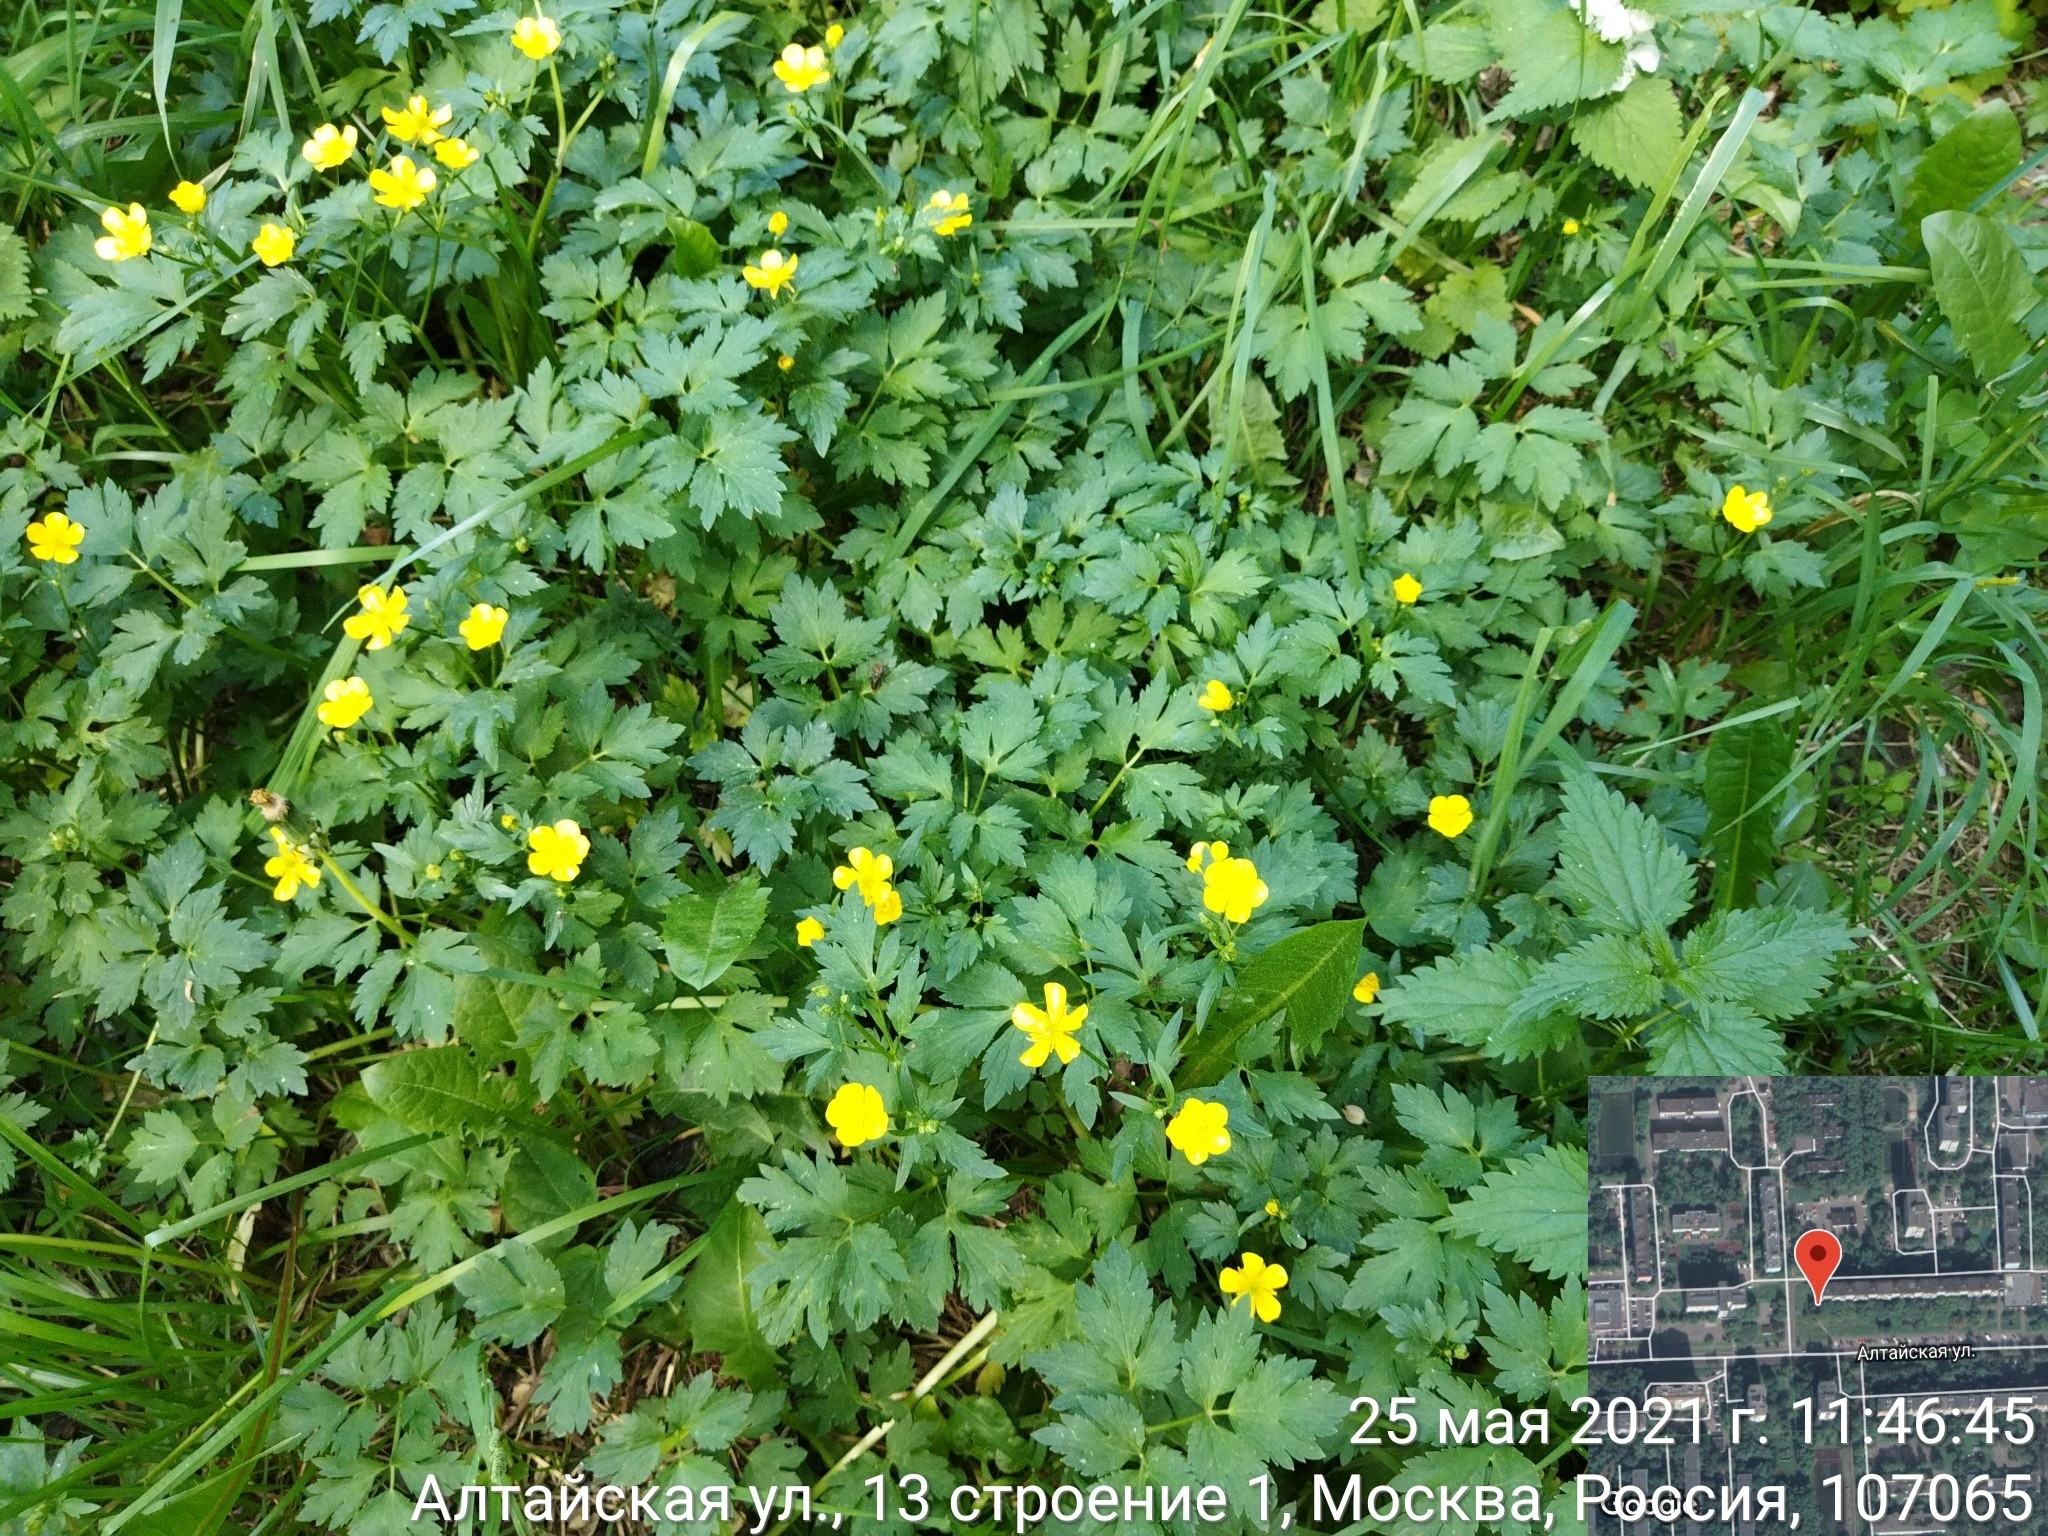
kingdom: Plantae
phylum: Tracheophyta
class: Magnoliopsida
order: Ranunculales
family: Ranunculaceae
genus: Ranunculus
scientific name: Ranunculus repens
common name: Creeping buttercup
